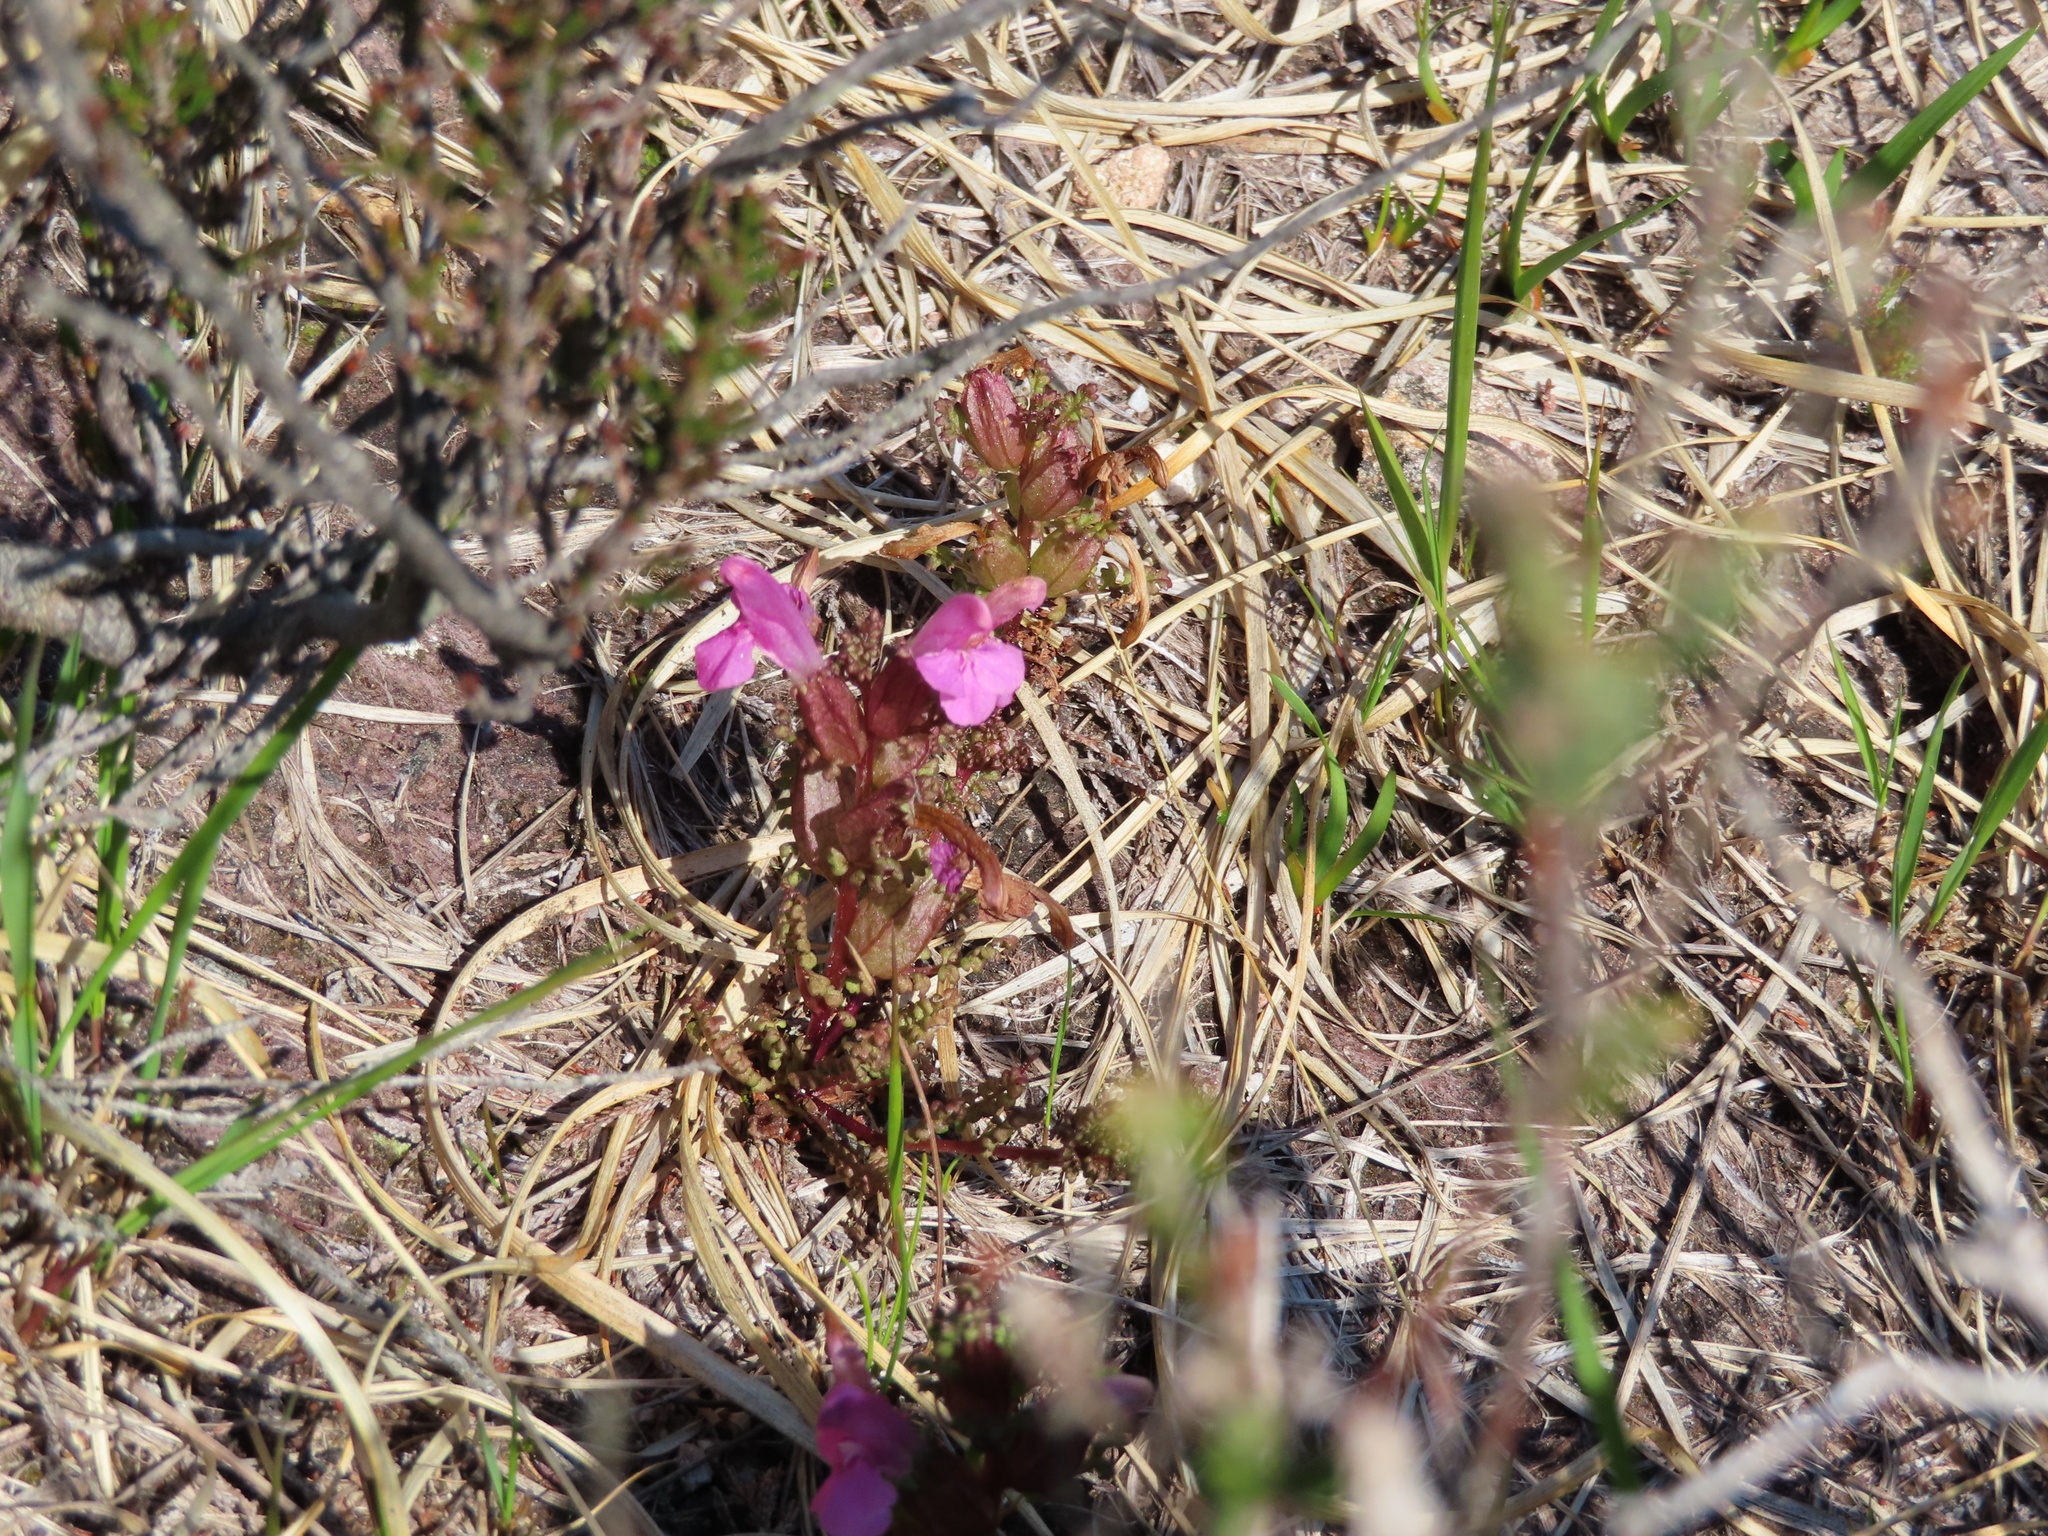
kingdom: Plantae
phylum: Tracheophyta
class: Magnoliopsida
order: Lamiales
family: Orobanchaceae
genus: Pedicularis
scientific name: Pedicularis sylvatica
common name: Lousewort
